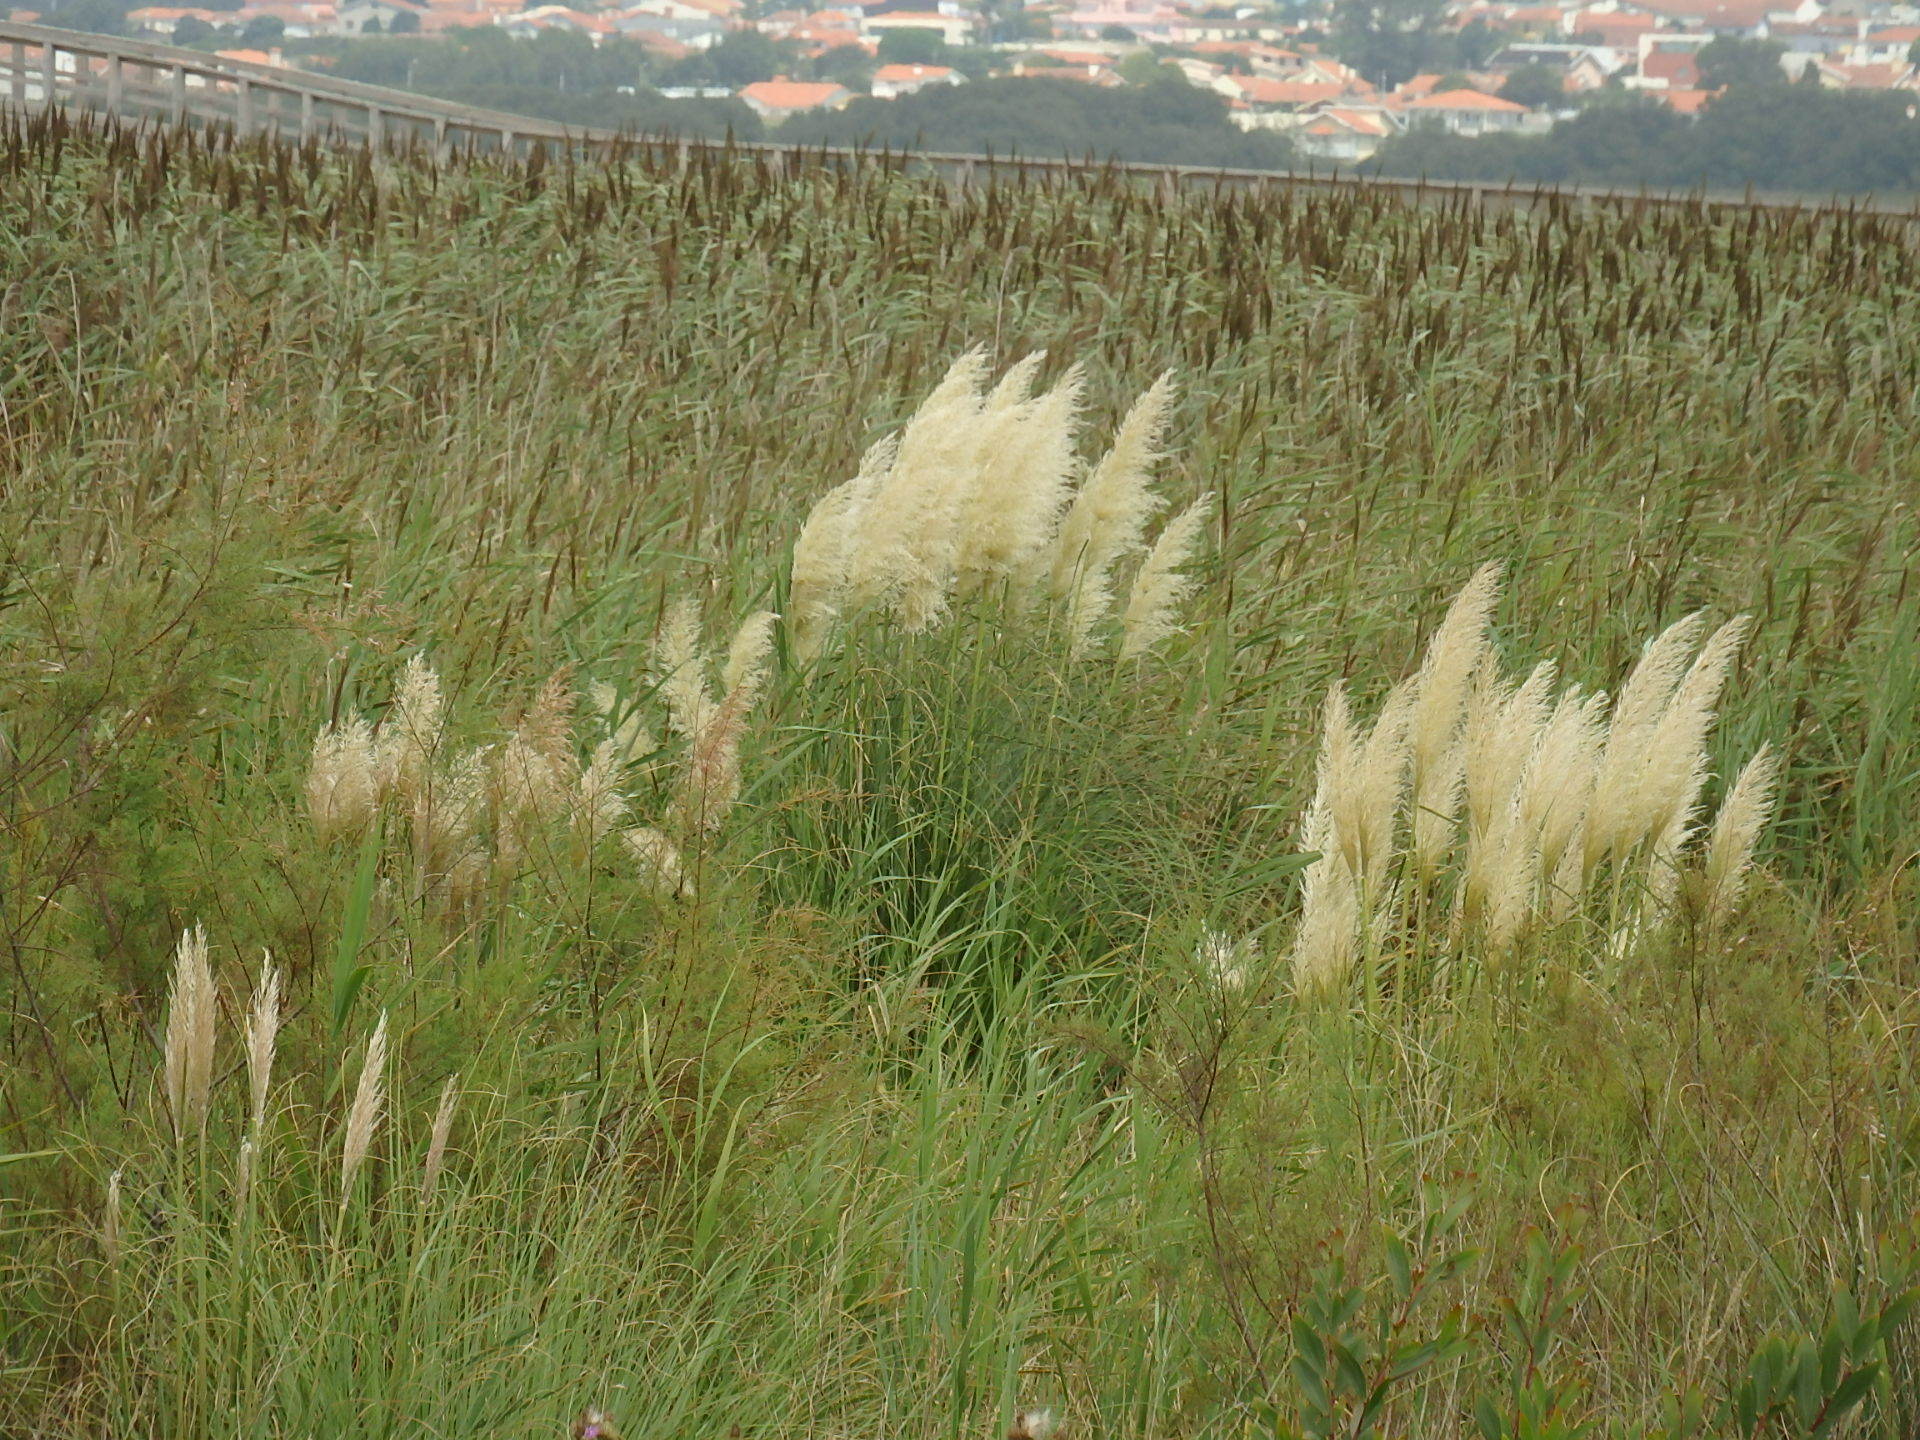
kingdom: Plantae
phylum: Tracheophyta
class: Liliopsida
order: Poales
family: Poaceae
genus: Cortaderia
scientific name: Cortaderia selloana
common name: Uruguayan pampas grass
